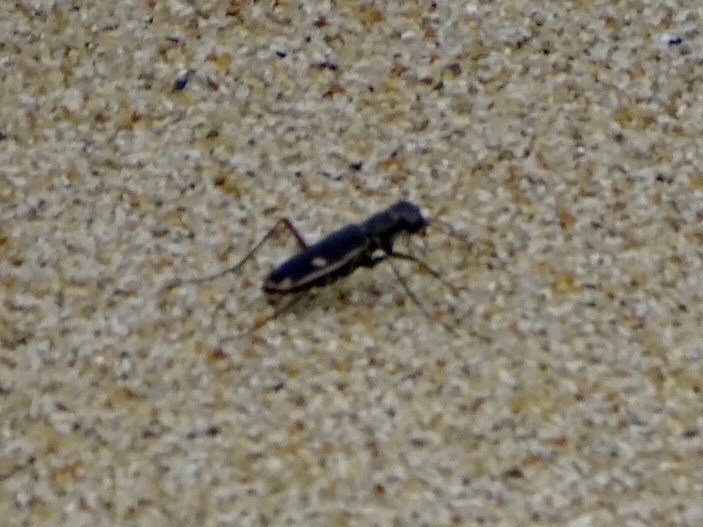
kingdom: Animalia
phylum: Arthropoda
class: Insecta
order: Coleoptera
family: Carabidae
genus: Hypaetha
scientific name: Hypaetha biramosa
